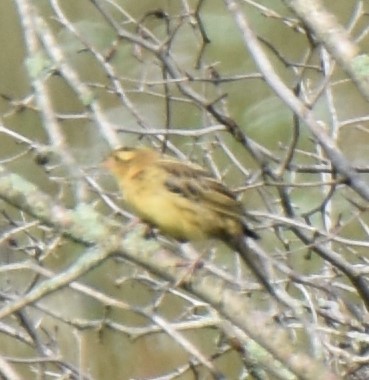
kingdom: Animalia
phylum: Chordata
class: Aves
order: Passeriformes
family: Icteridae
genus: Dolichonyx
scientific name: Dolichonyx oryzivorus
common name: Bobolink
